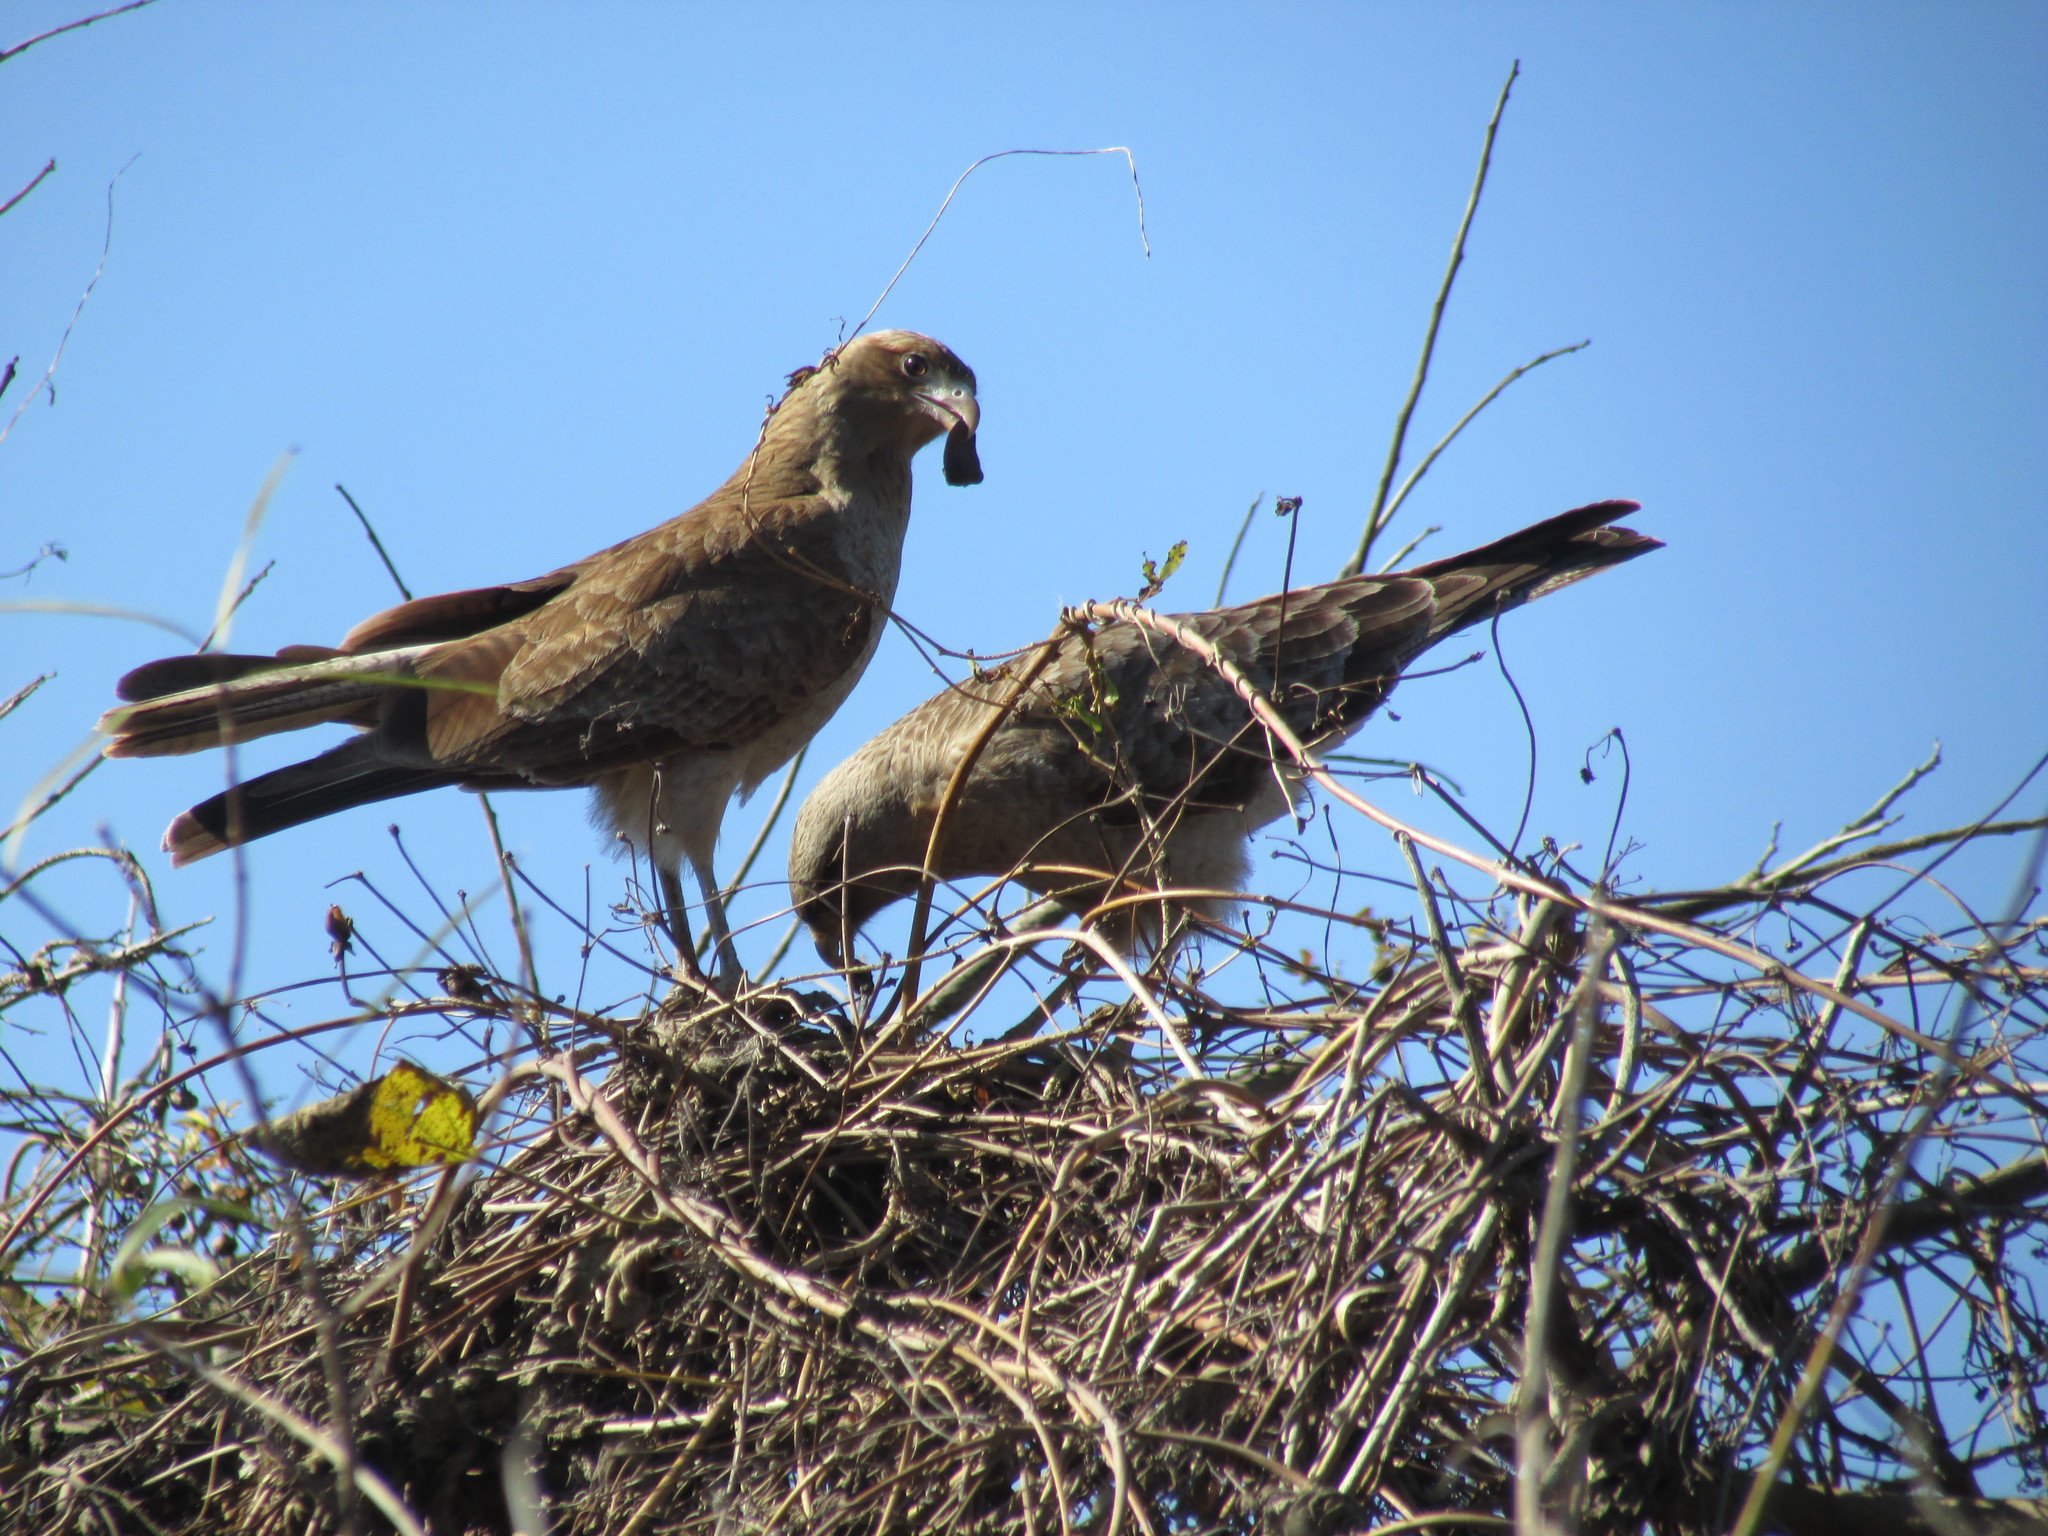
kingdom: Animalia
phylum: Chordata
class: Aves
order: Falconiformes
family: Falconidae
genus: Daptrius
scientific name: Daptrius
